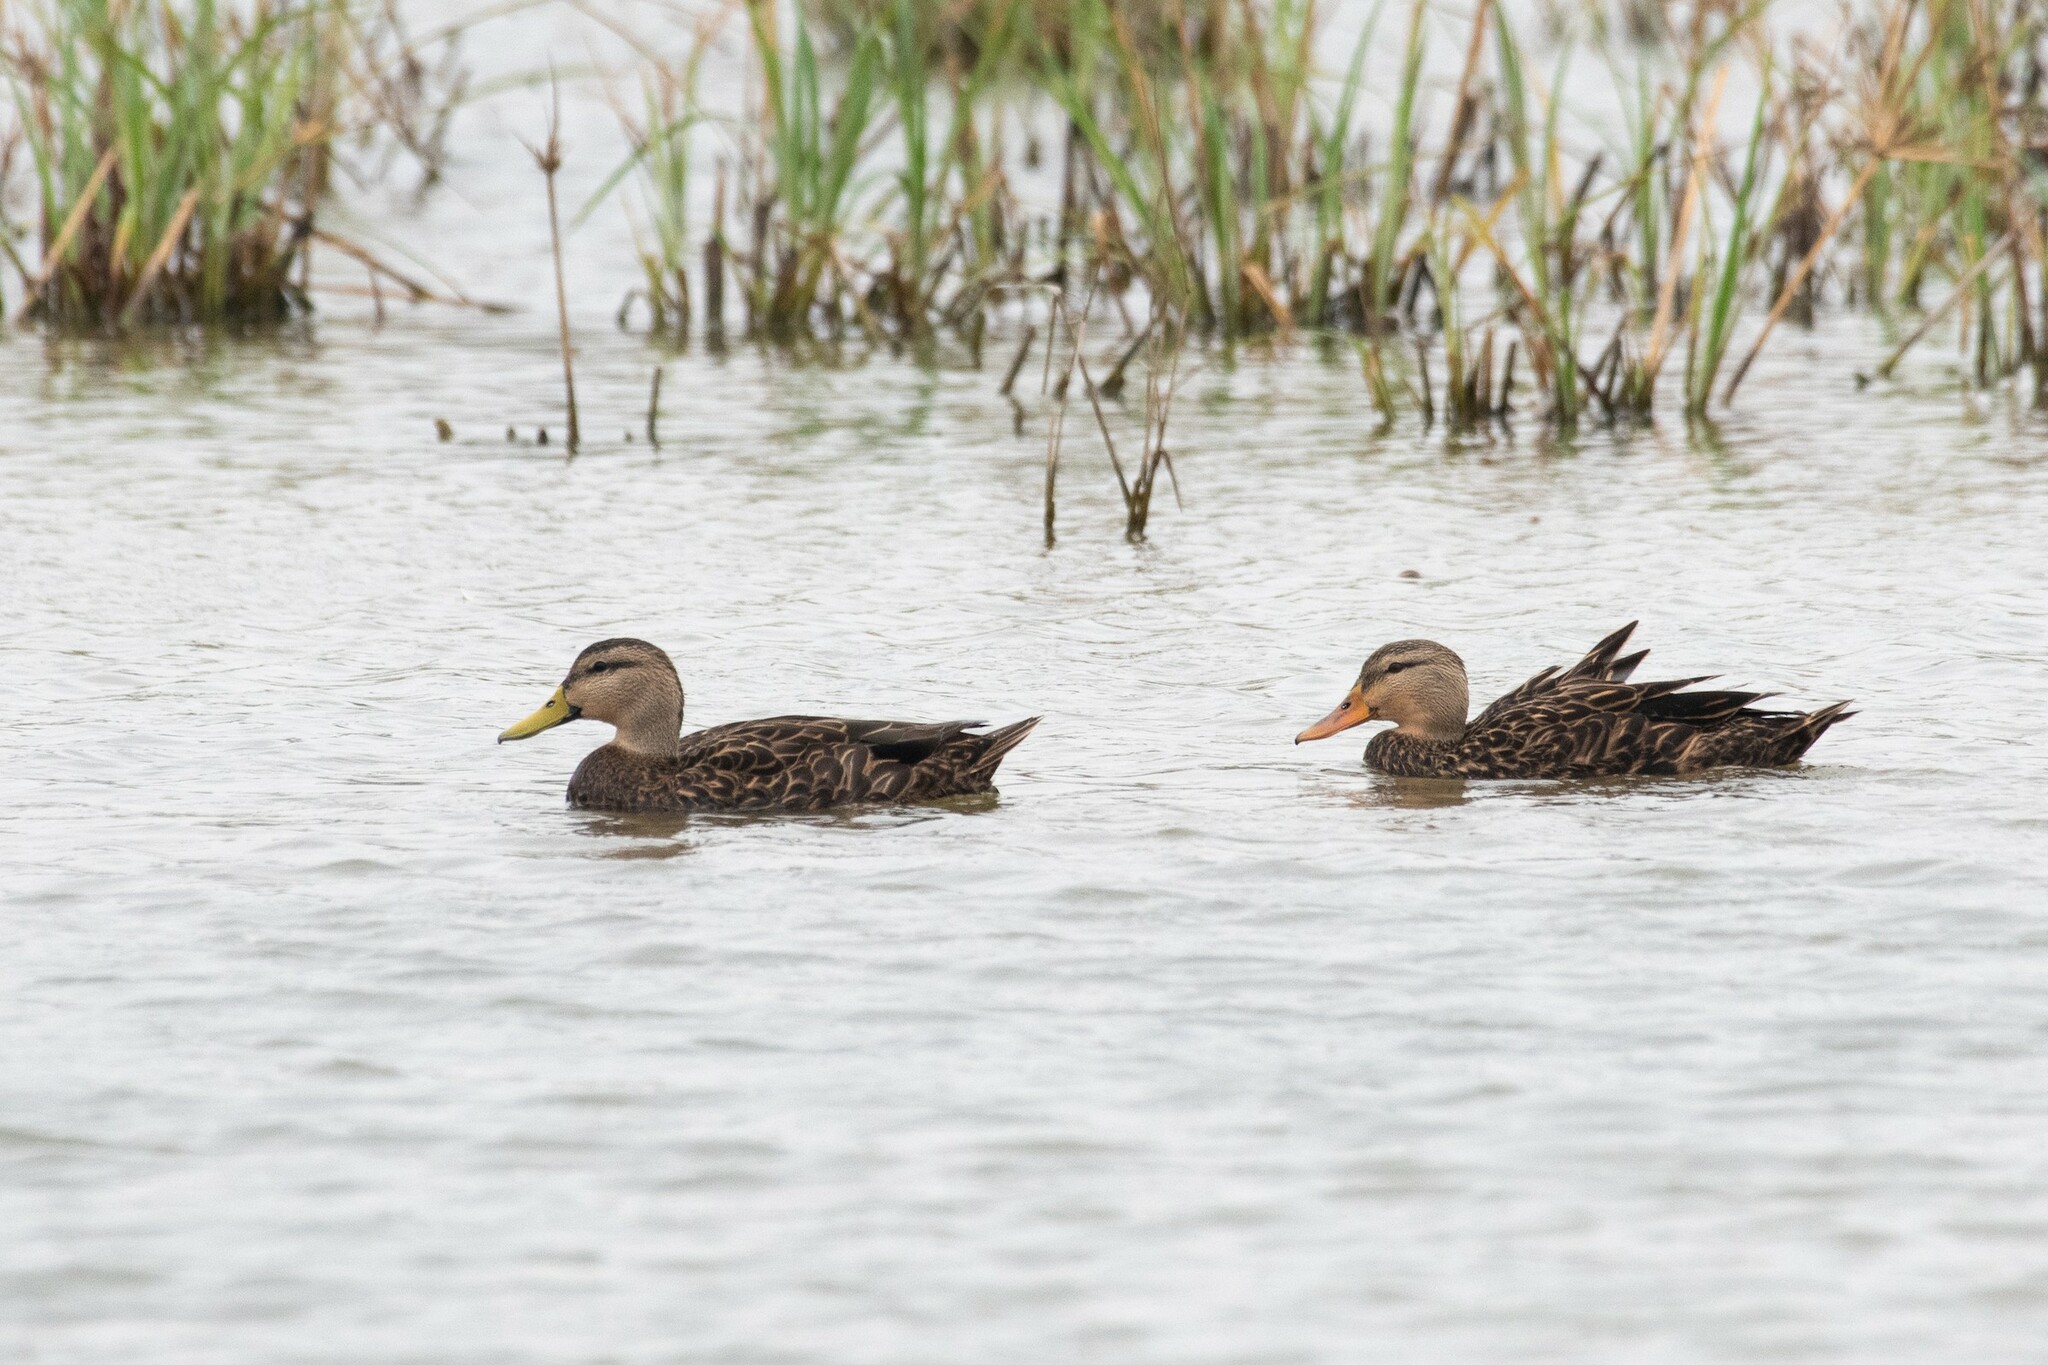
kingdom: Animalia
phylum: Chordata
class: Aves
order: Anseriformes
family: Anatidae
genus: Anas
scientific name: Anas fulvigula
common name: Mottled duck
